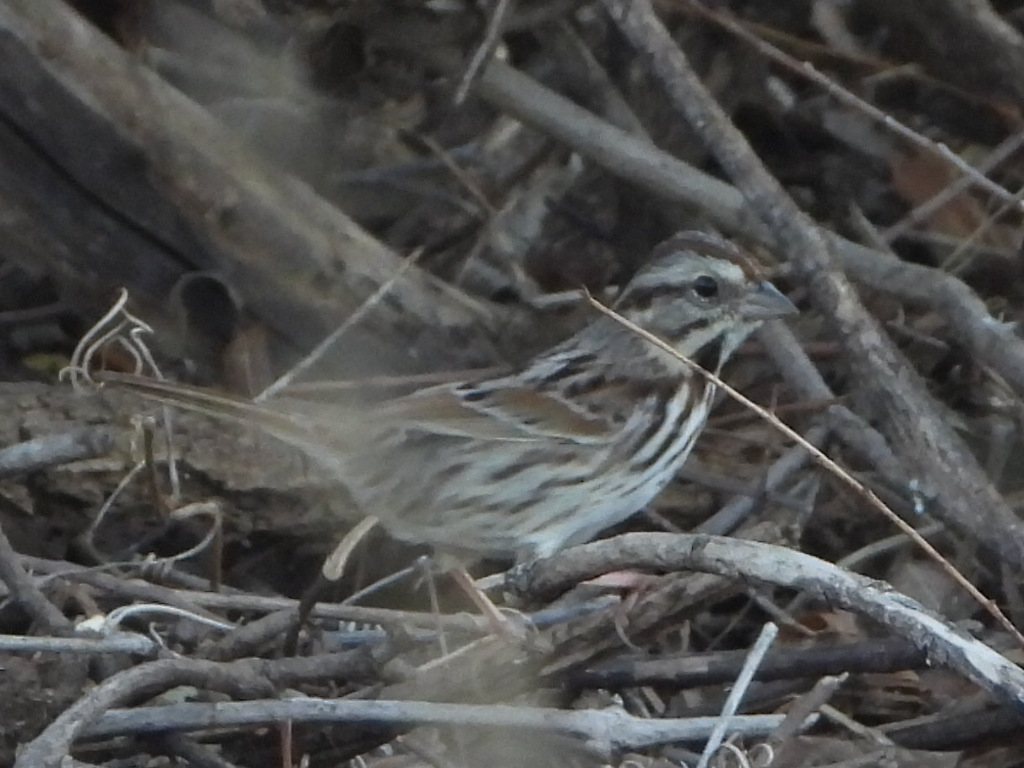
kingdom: Animalia
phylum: Chordata
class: Aves
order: Passeriformes
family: Passerellidae
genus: Melospiza
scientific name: Melospiza melodia
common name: Song sparrow
